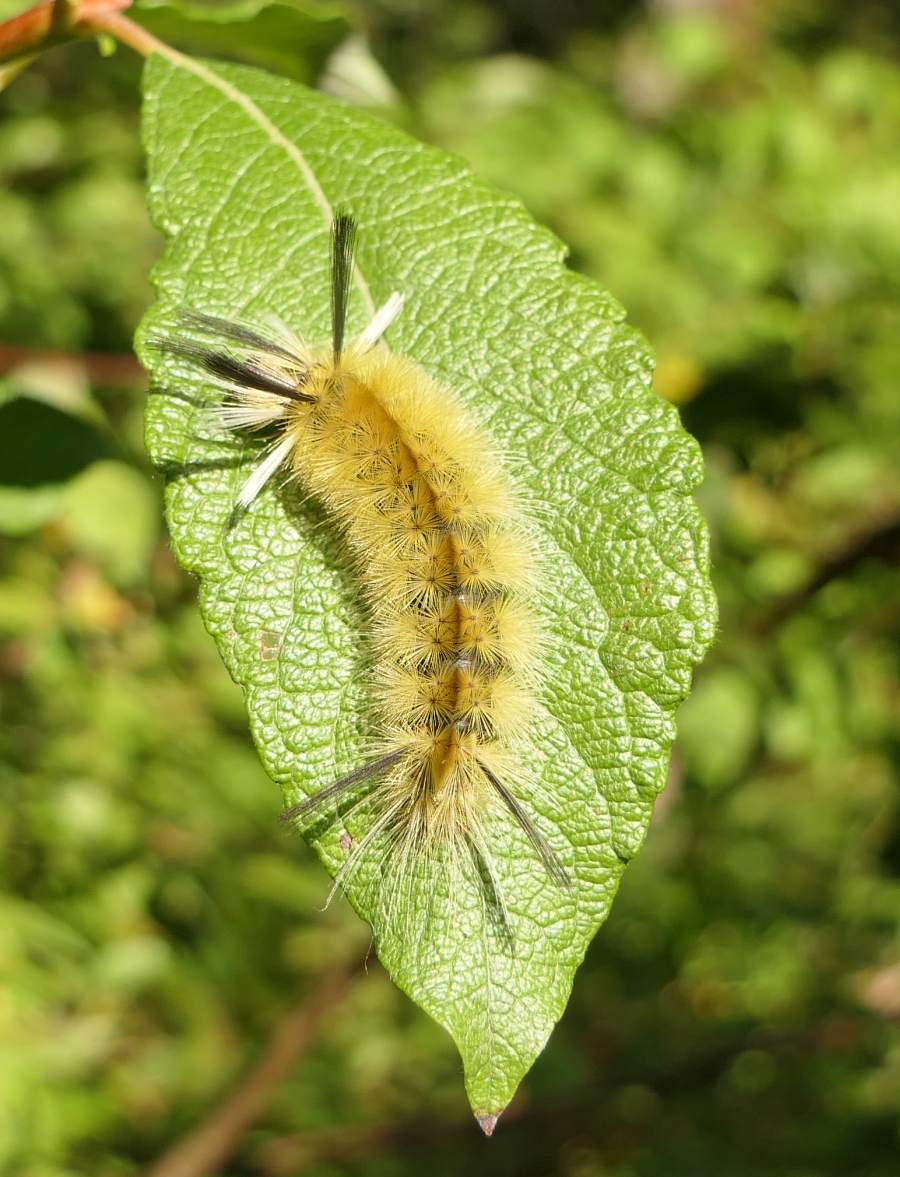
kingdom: Animalia
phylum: Arthropoda
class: Insecta
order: Lepidoptera
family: Erebidae
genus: Halysidota
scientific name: Halysidota tessellaris
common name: Banded tussock moth
